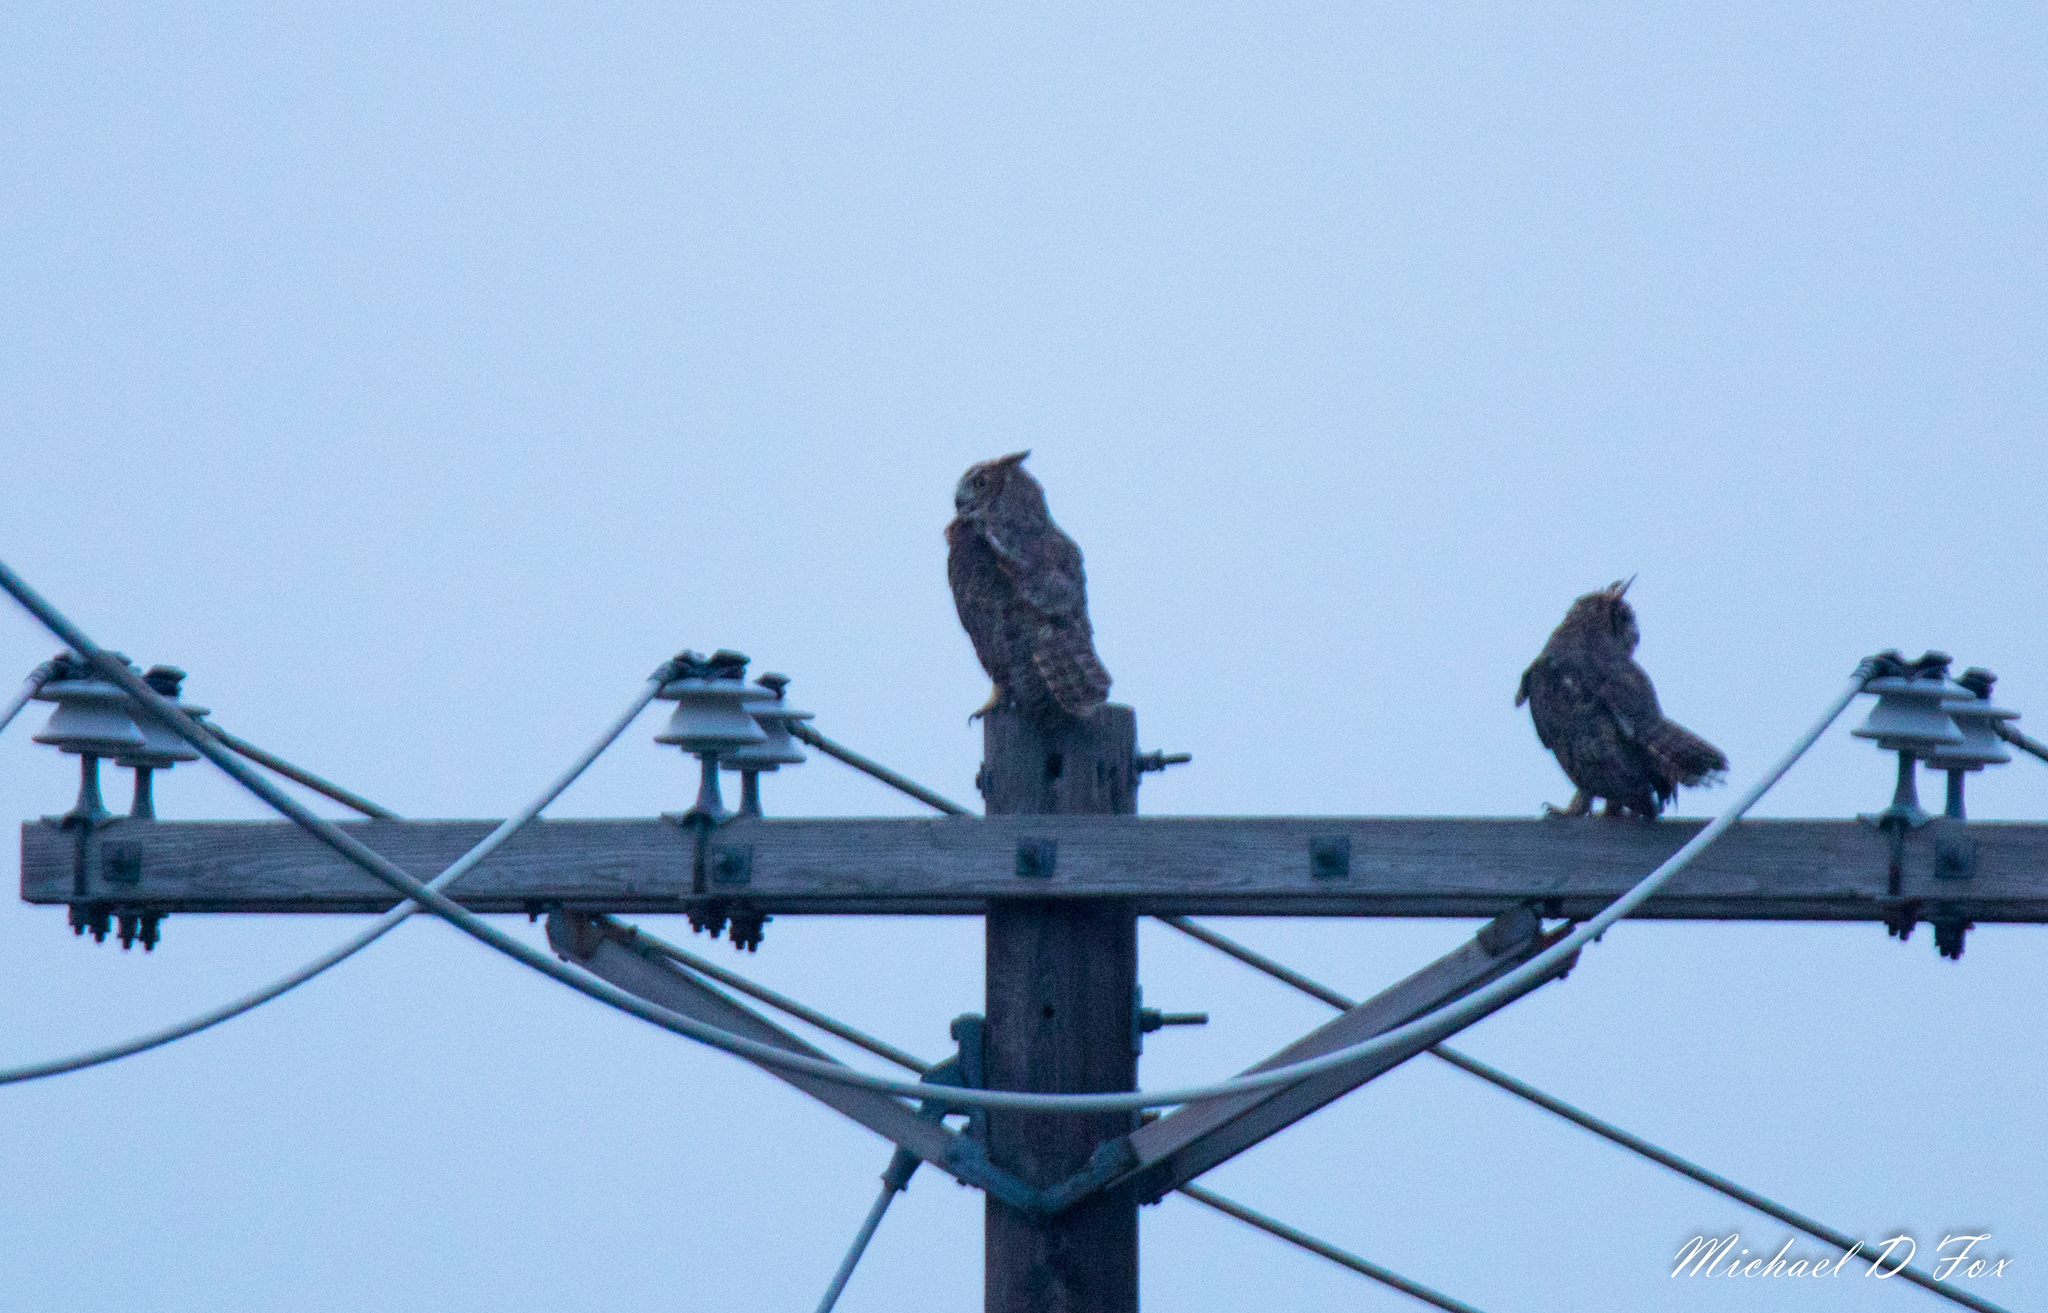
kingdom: Animalia
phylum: Chordata
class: Aves
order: Strigiformes
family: Strigidae
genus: Bubo
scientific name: Bubo virginianus
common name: Great horned owl
